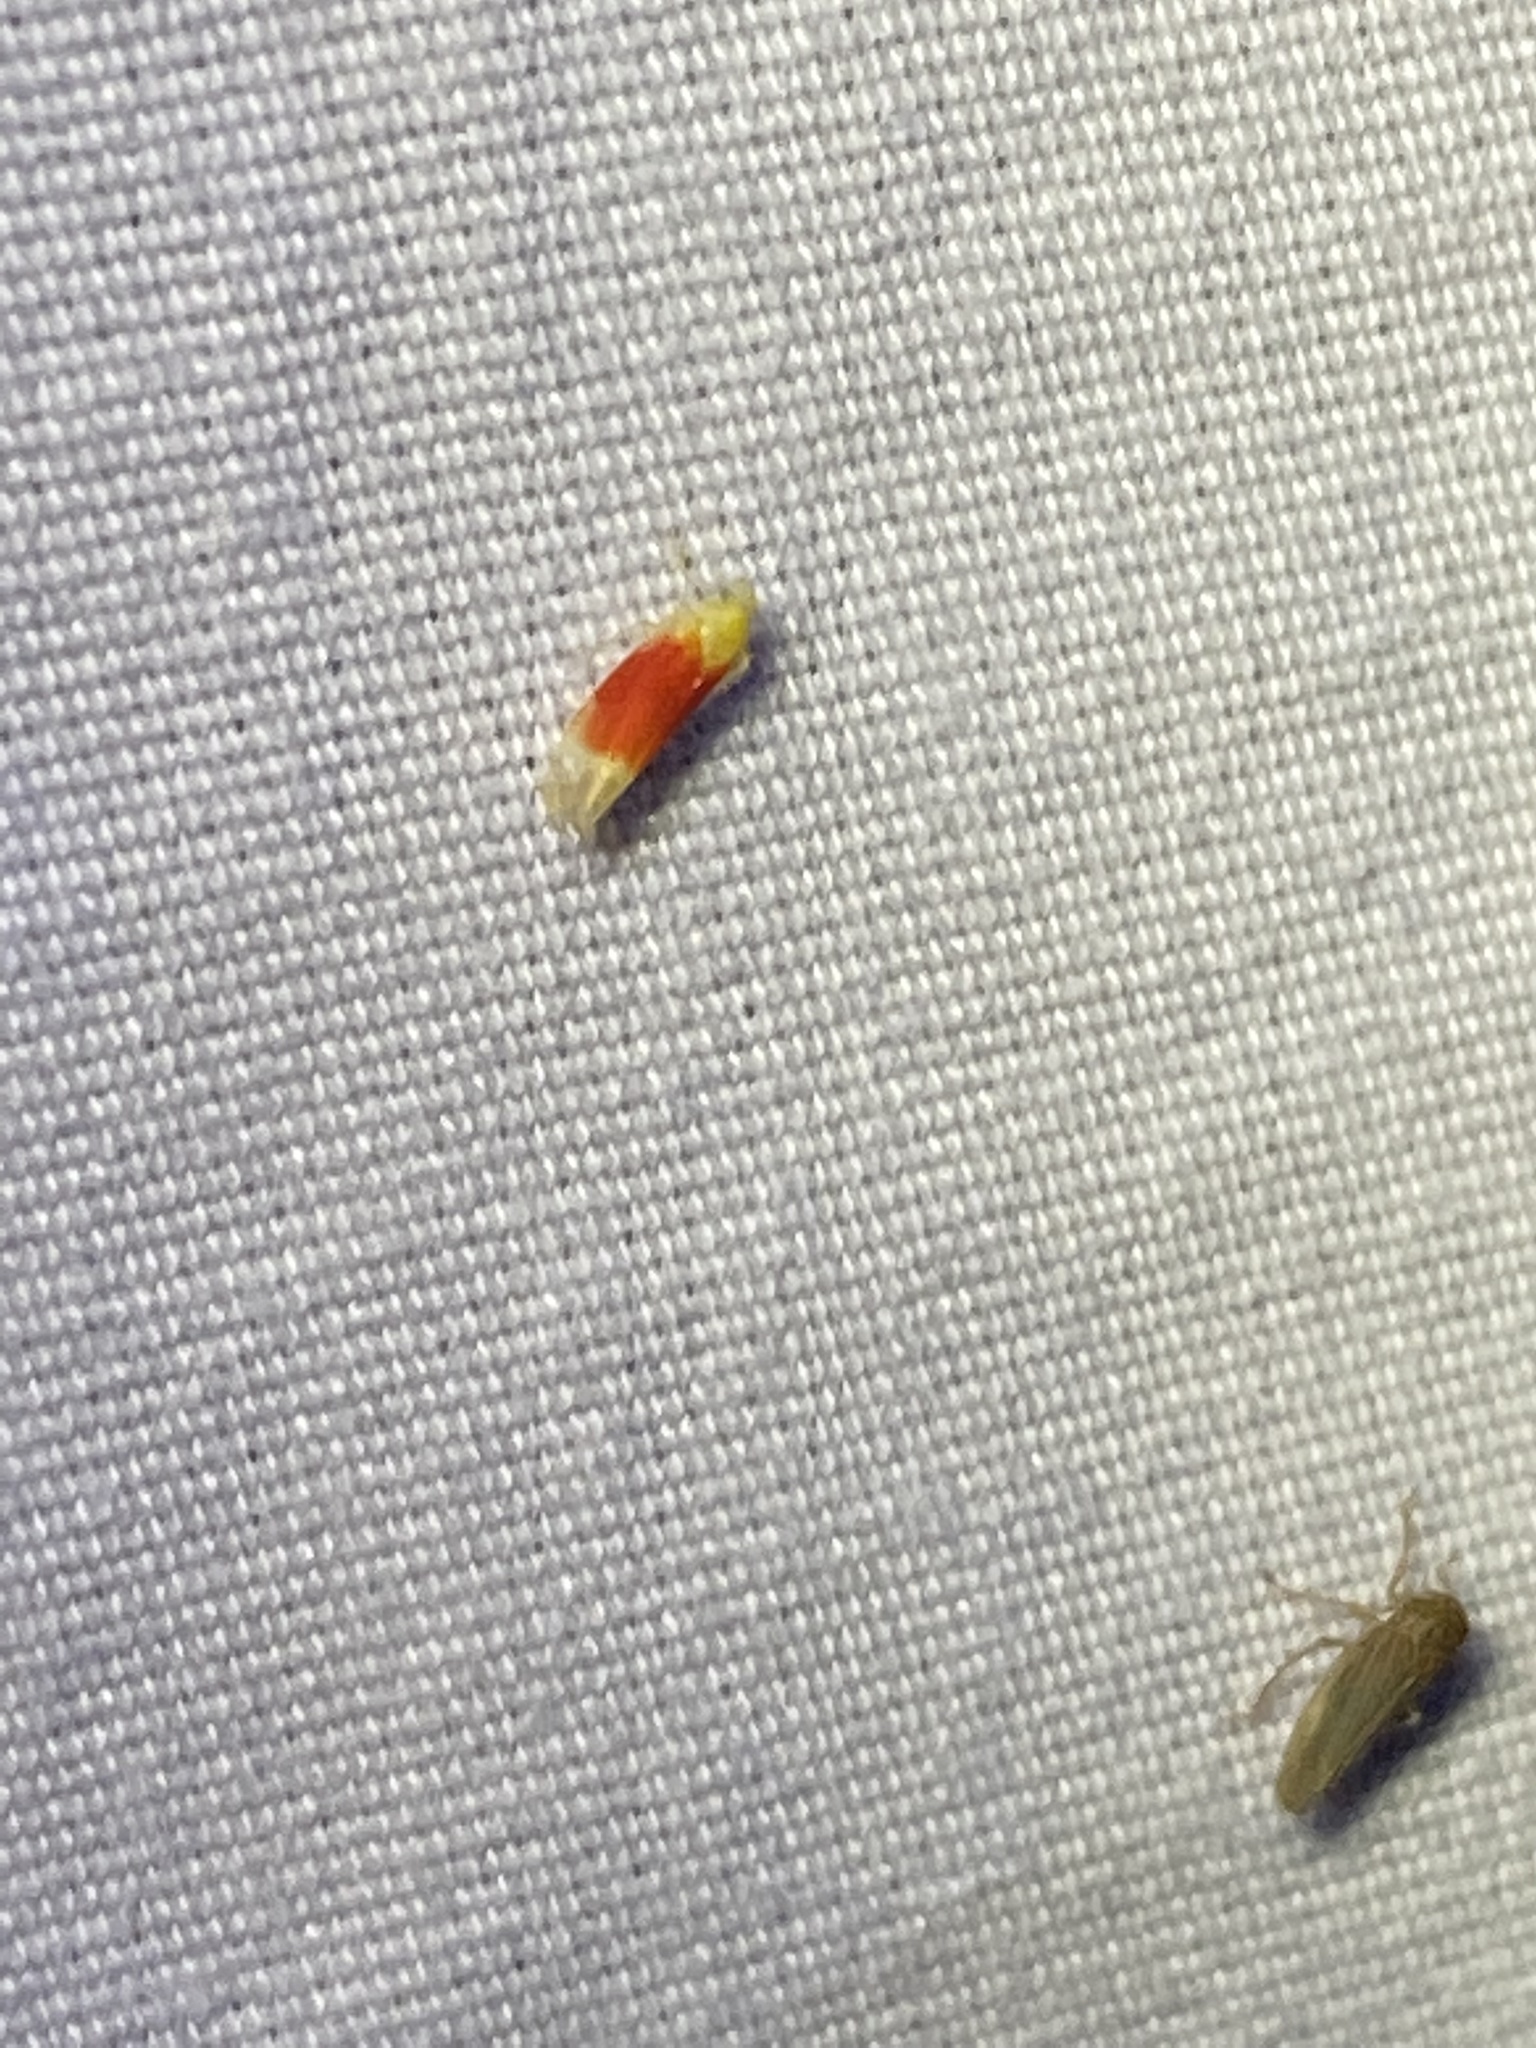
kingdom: Animalia
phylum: Arthropoda
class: Insecta
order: Hemiptera
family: Cicadellidae
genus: Ossiannilssonola
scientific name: Ossiannilssonola tunicarubra
